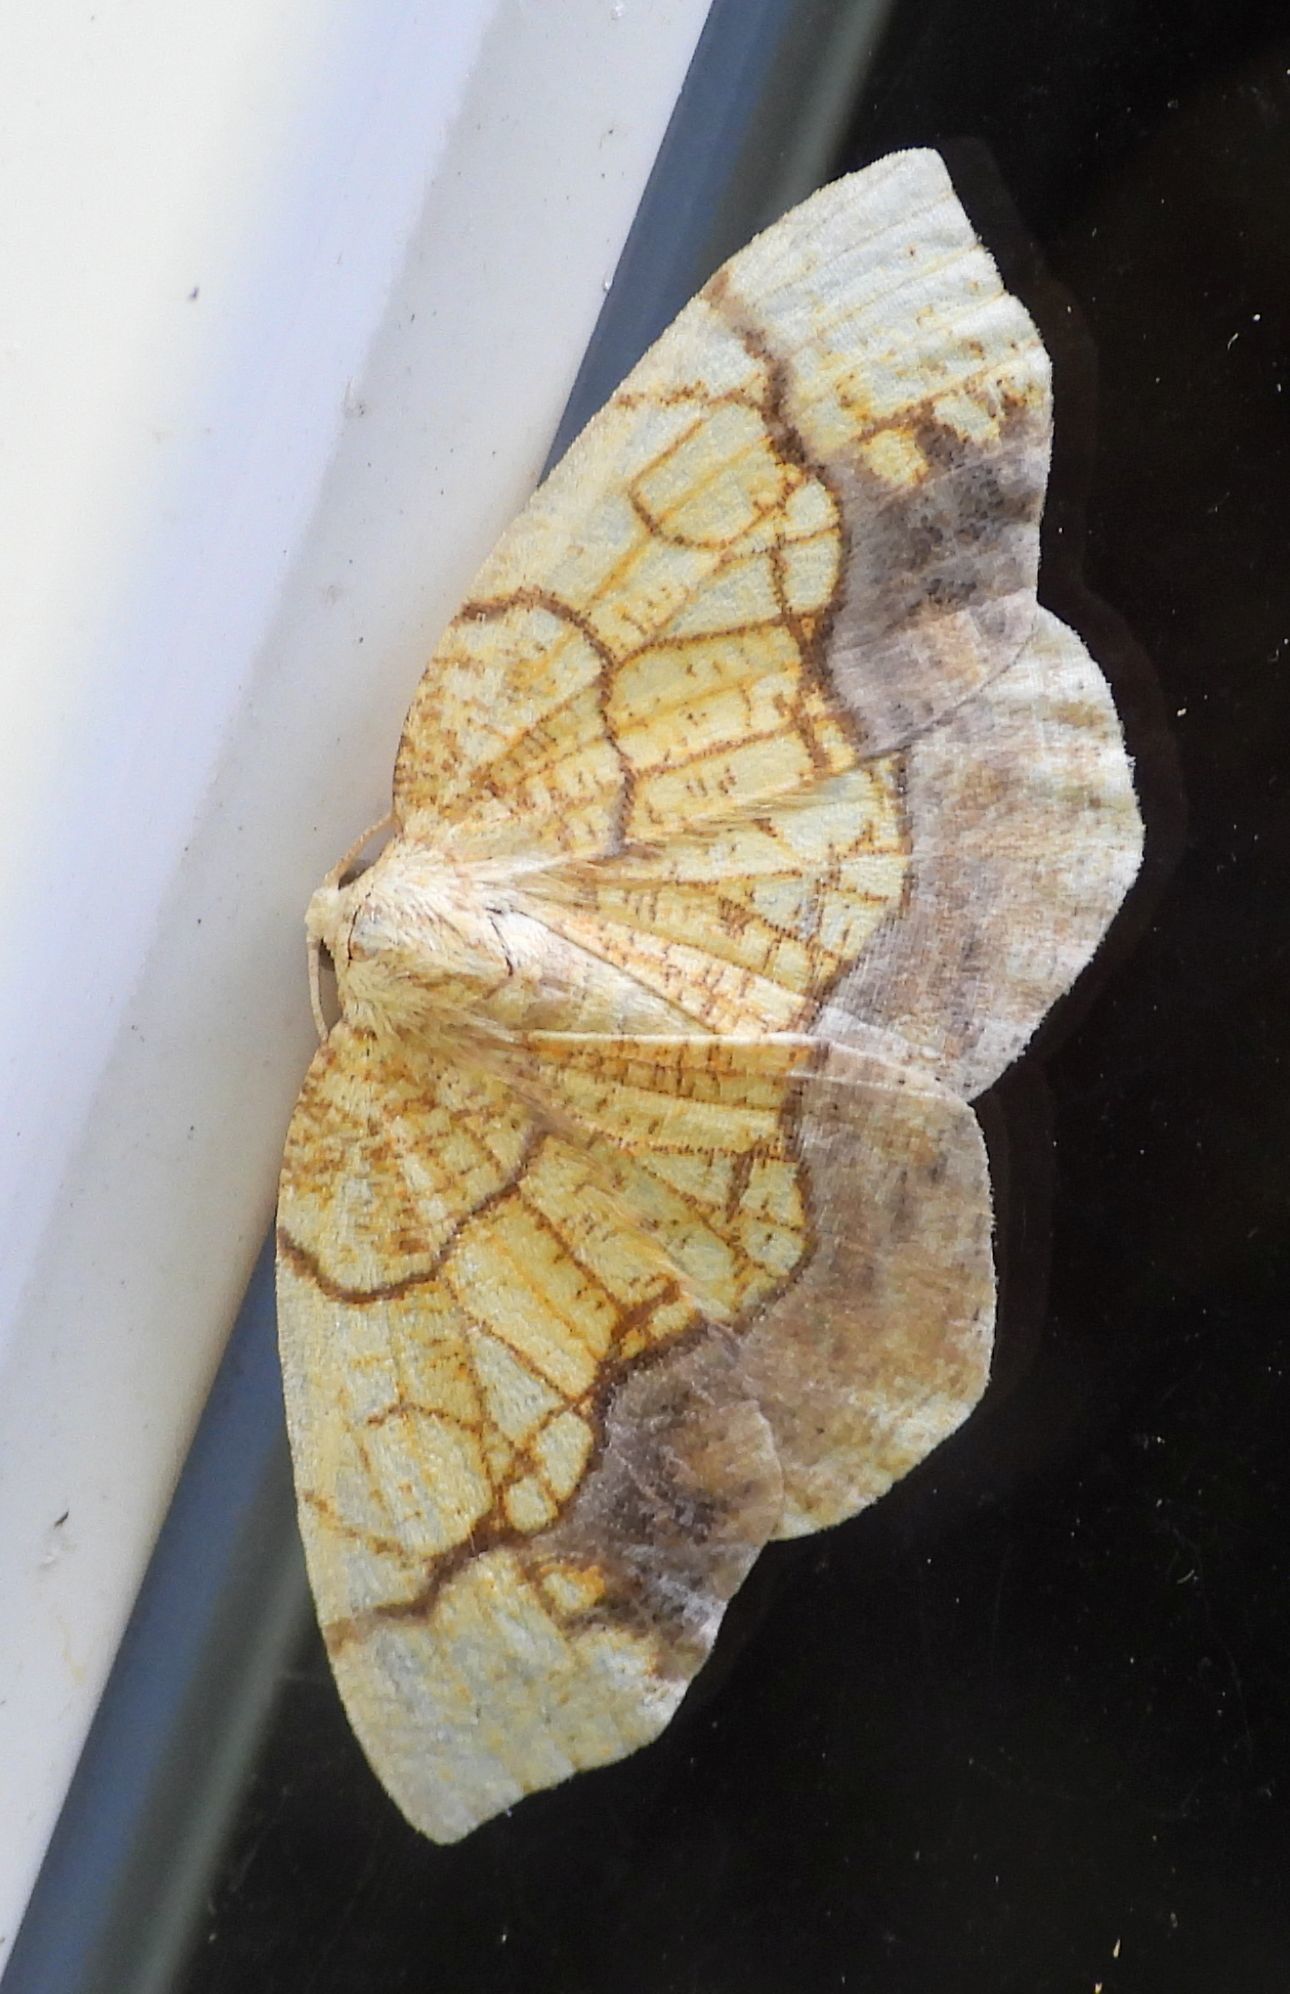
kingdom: Animalia
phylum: Arthropoda
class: Insecta
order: Lepidoptera
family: Geometridae
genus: Nematocampa
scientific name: Nematocampa resistaria
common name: Horned spanworm moth
